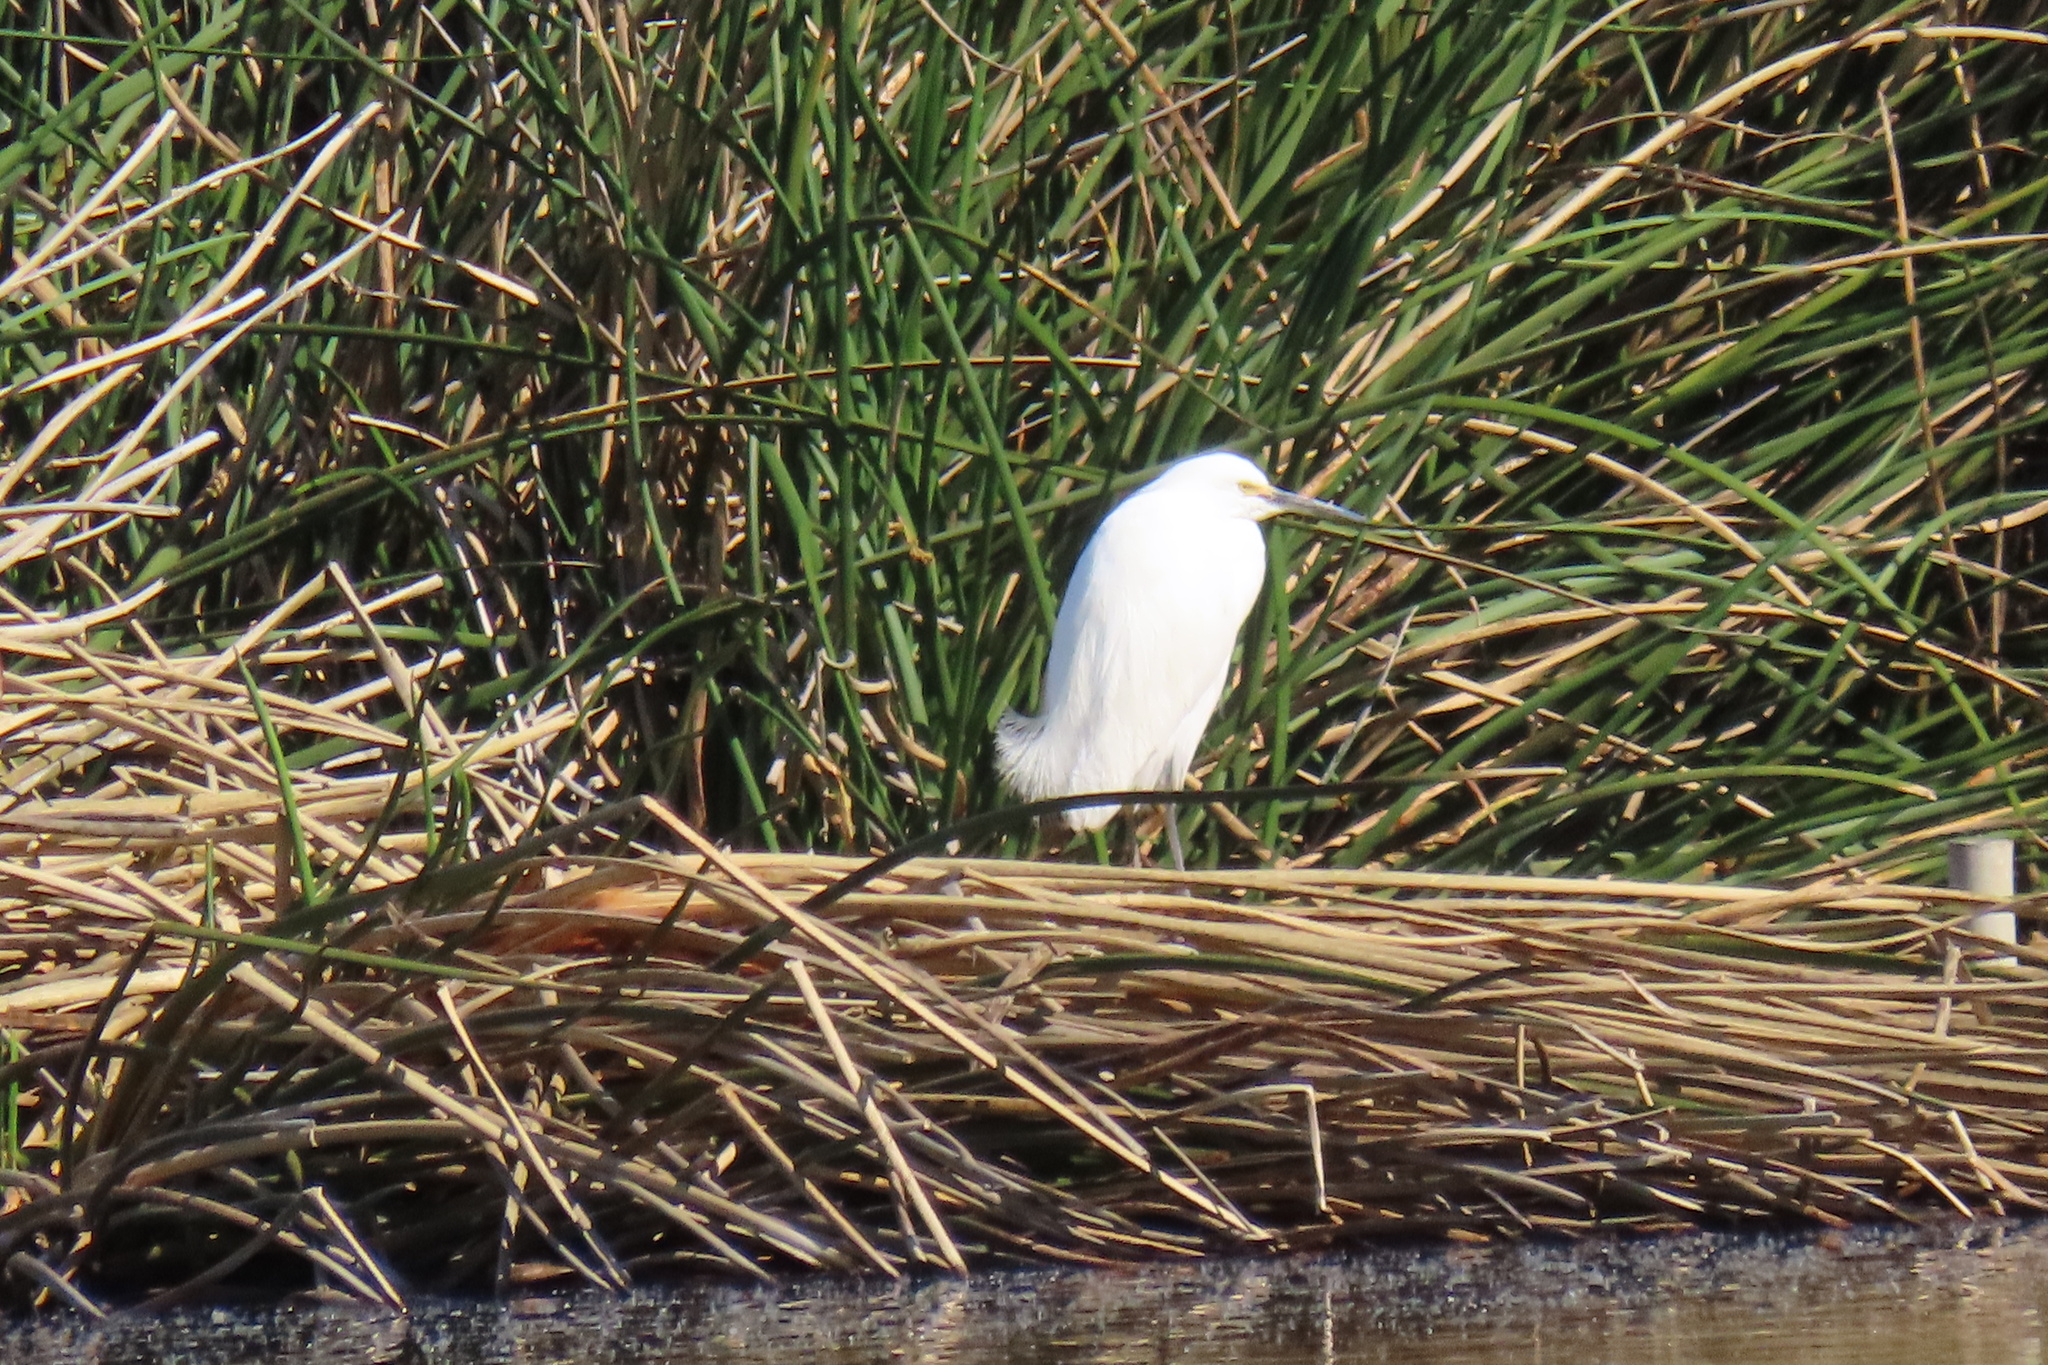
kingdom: Animalia
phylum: Chordata
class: Aves
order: Pelecaniformes
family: Ardeidae
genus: Egretta
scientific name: Egretta thula
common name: Snowy egret
